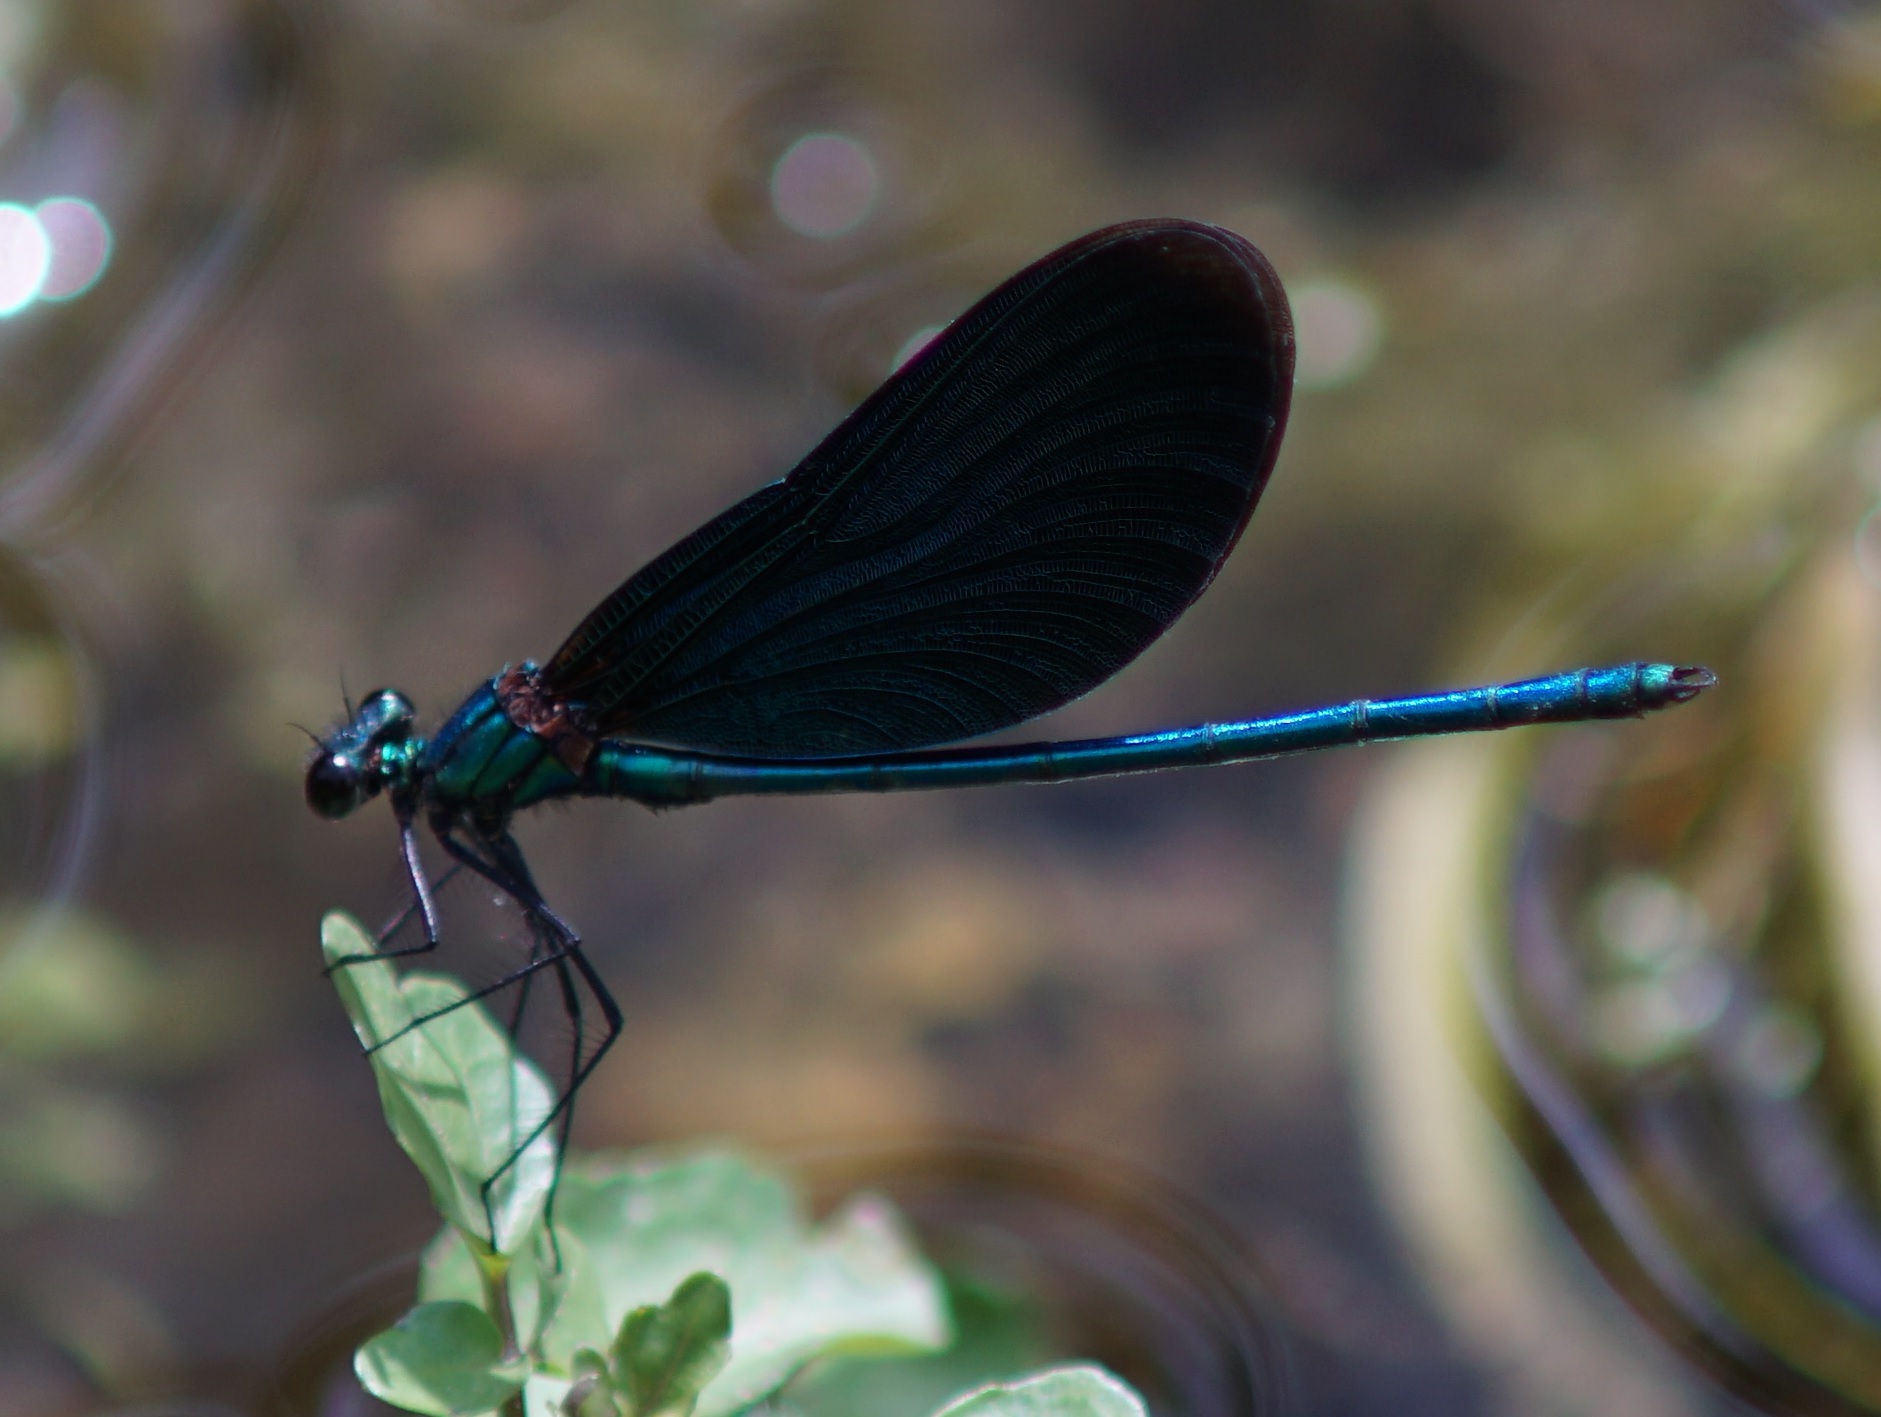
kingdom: Animalia
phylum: Arthropoda
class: Insecta
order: Odonata
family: Calopterygidae
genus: Calopteryx
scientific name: Calopteryx virgo
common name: Beautiful demoiselle
